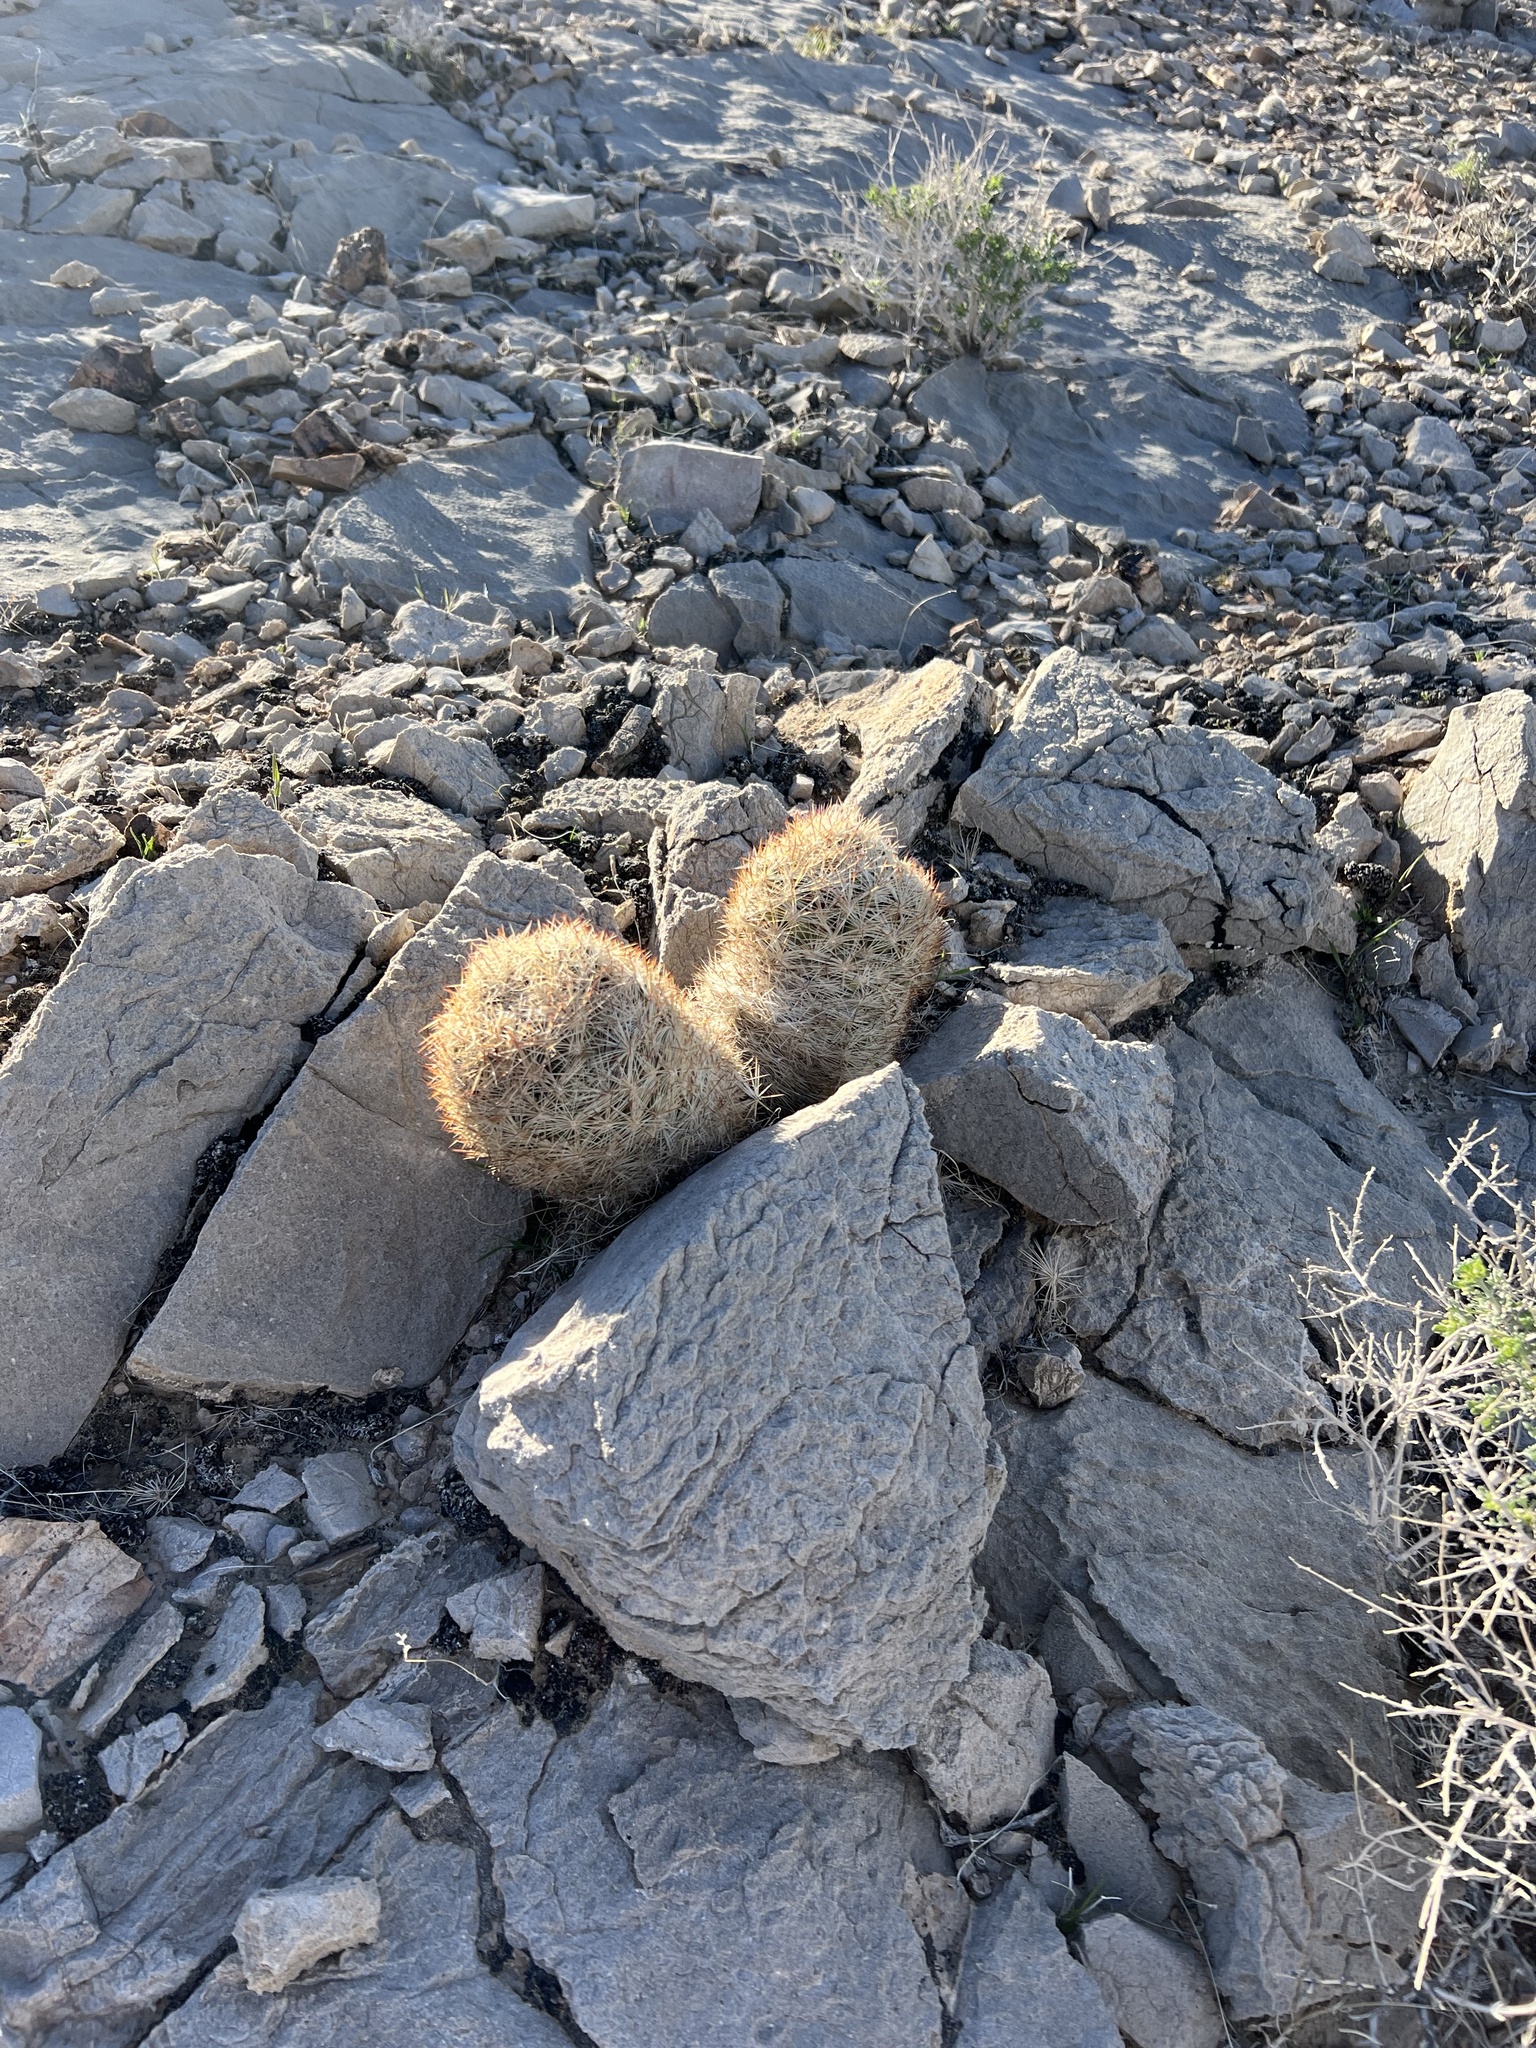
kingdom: Plantae
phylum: Tracheophyta
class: Magnoliopsida
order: Caryophyllales
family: Cactaceae
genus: Pelecyphora
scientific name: Pelecyphora dasyacantha
